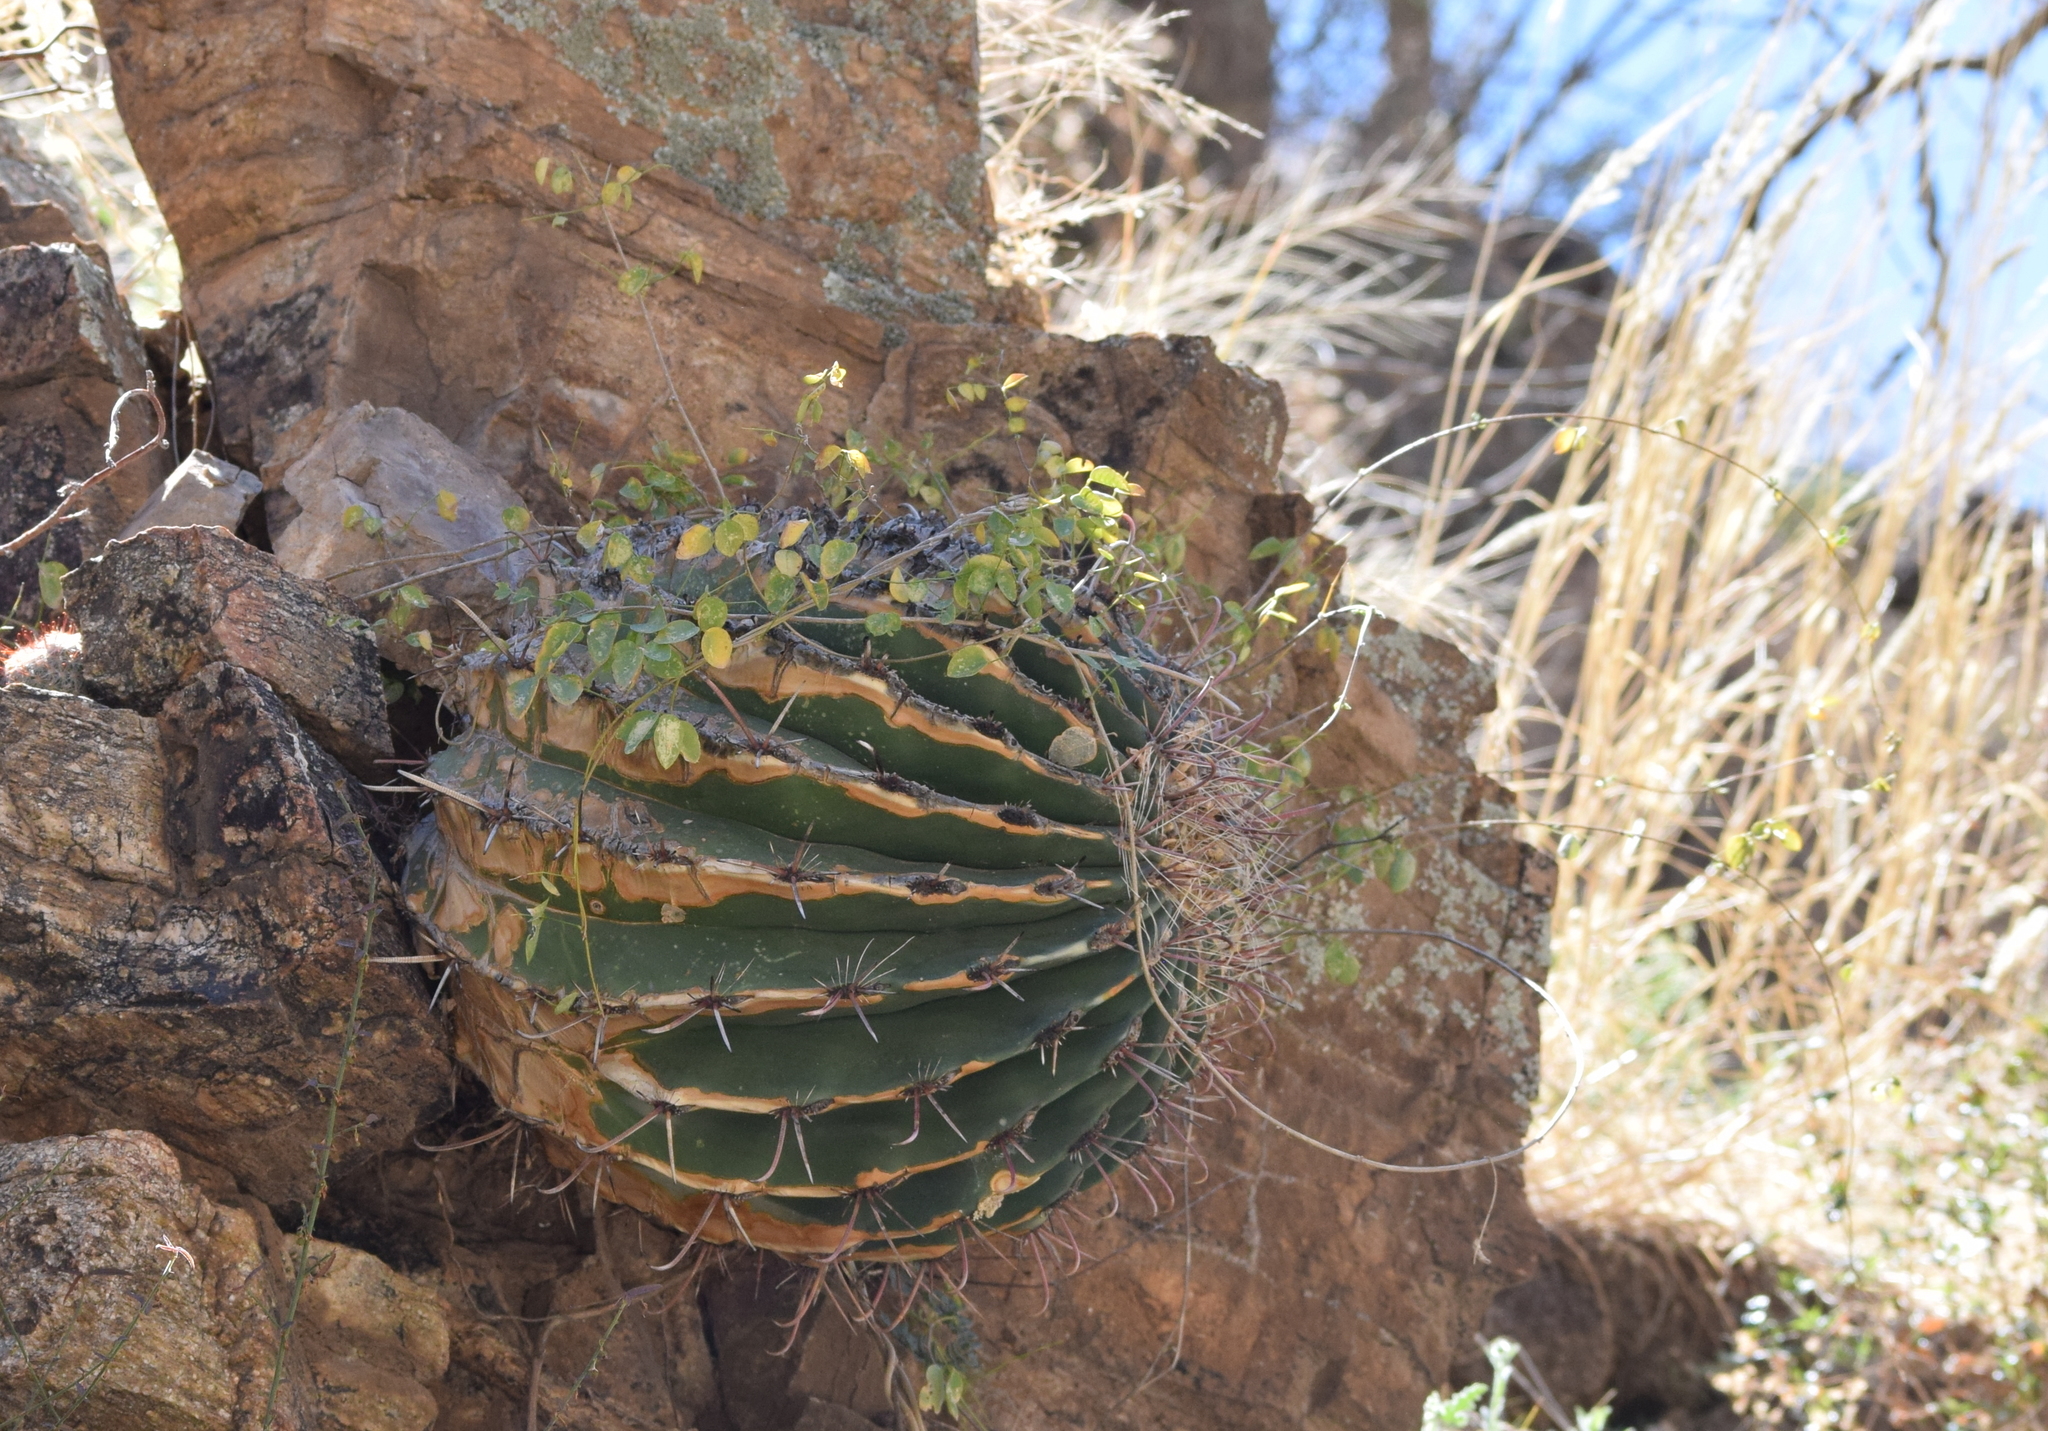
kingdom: Plantae
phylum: Tracheophyta
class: Magnoliopsida
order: Caryophyllales
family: Cactaceae
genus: Ferocactus
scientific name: Ferocactus wislizeni
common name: Candy barrel cactus
